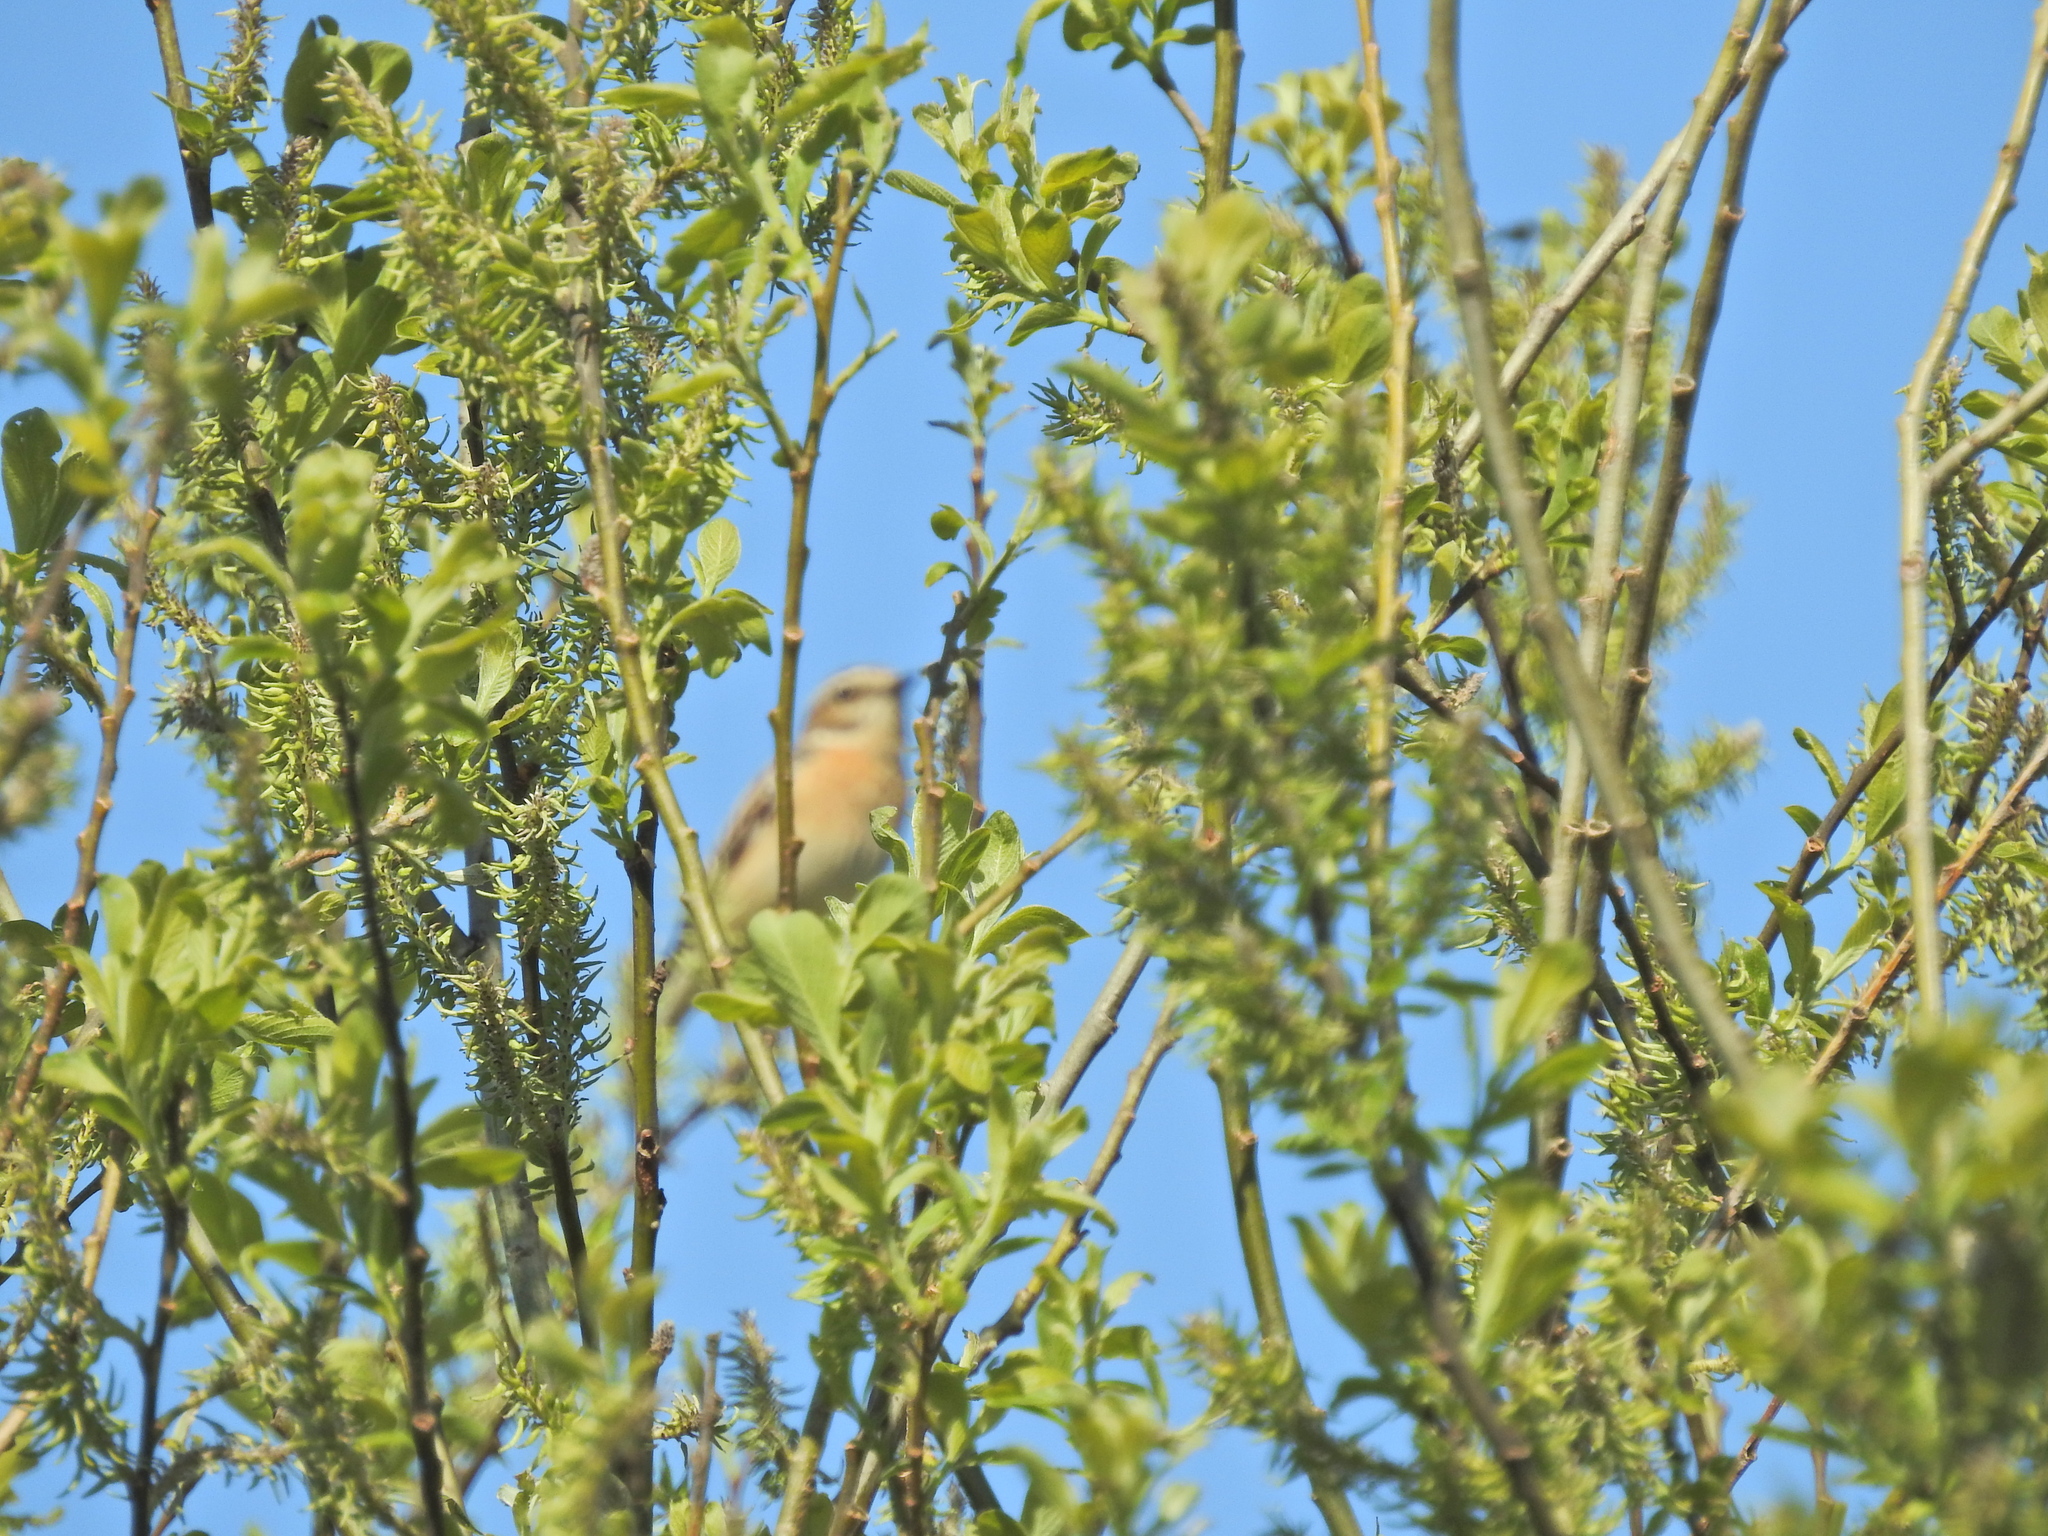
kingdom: Animalia
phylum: Chordata
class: Aves
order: Passeriformes
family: Muscicapidae
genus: Saxicola
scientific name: Saxicola rubetra
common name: Whinchat
